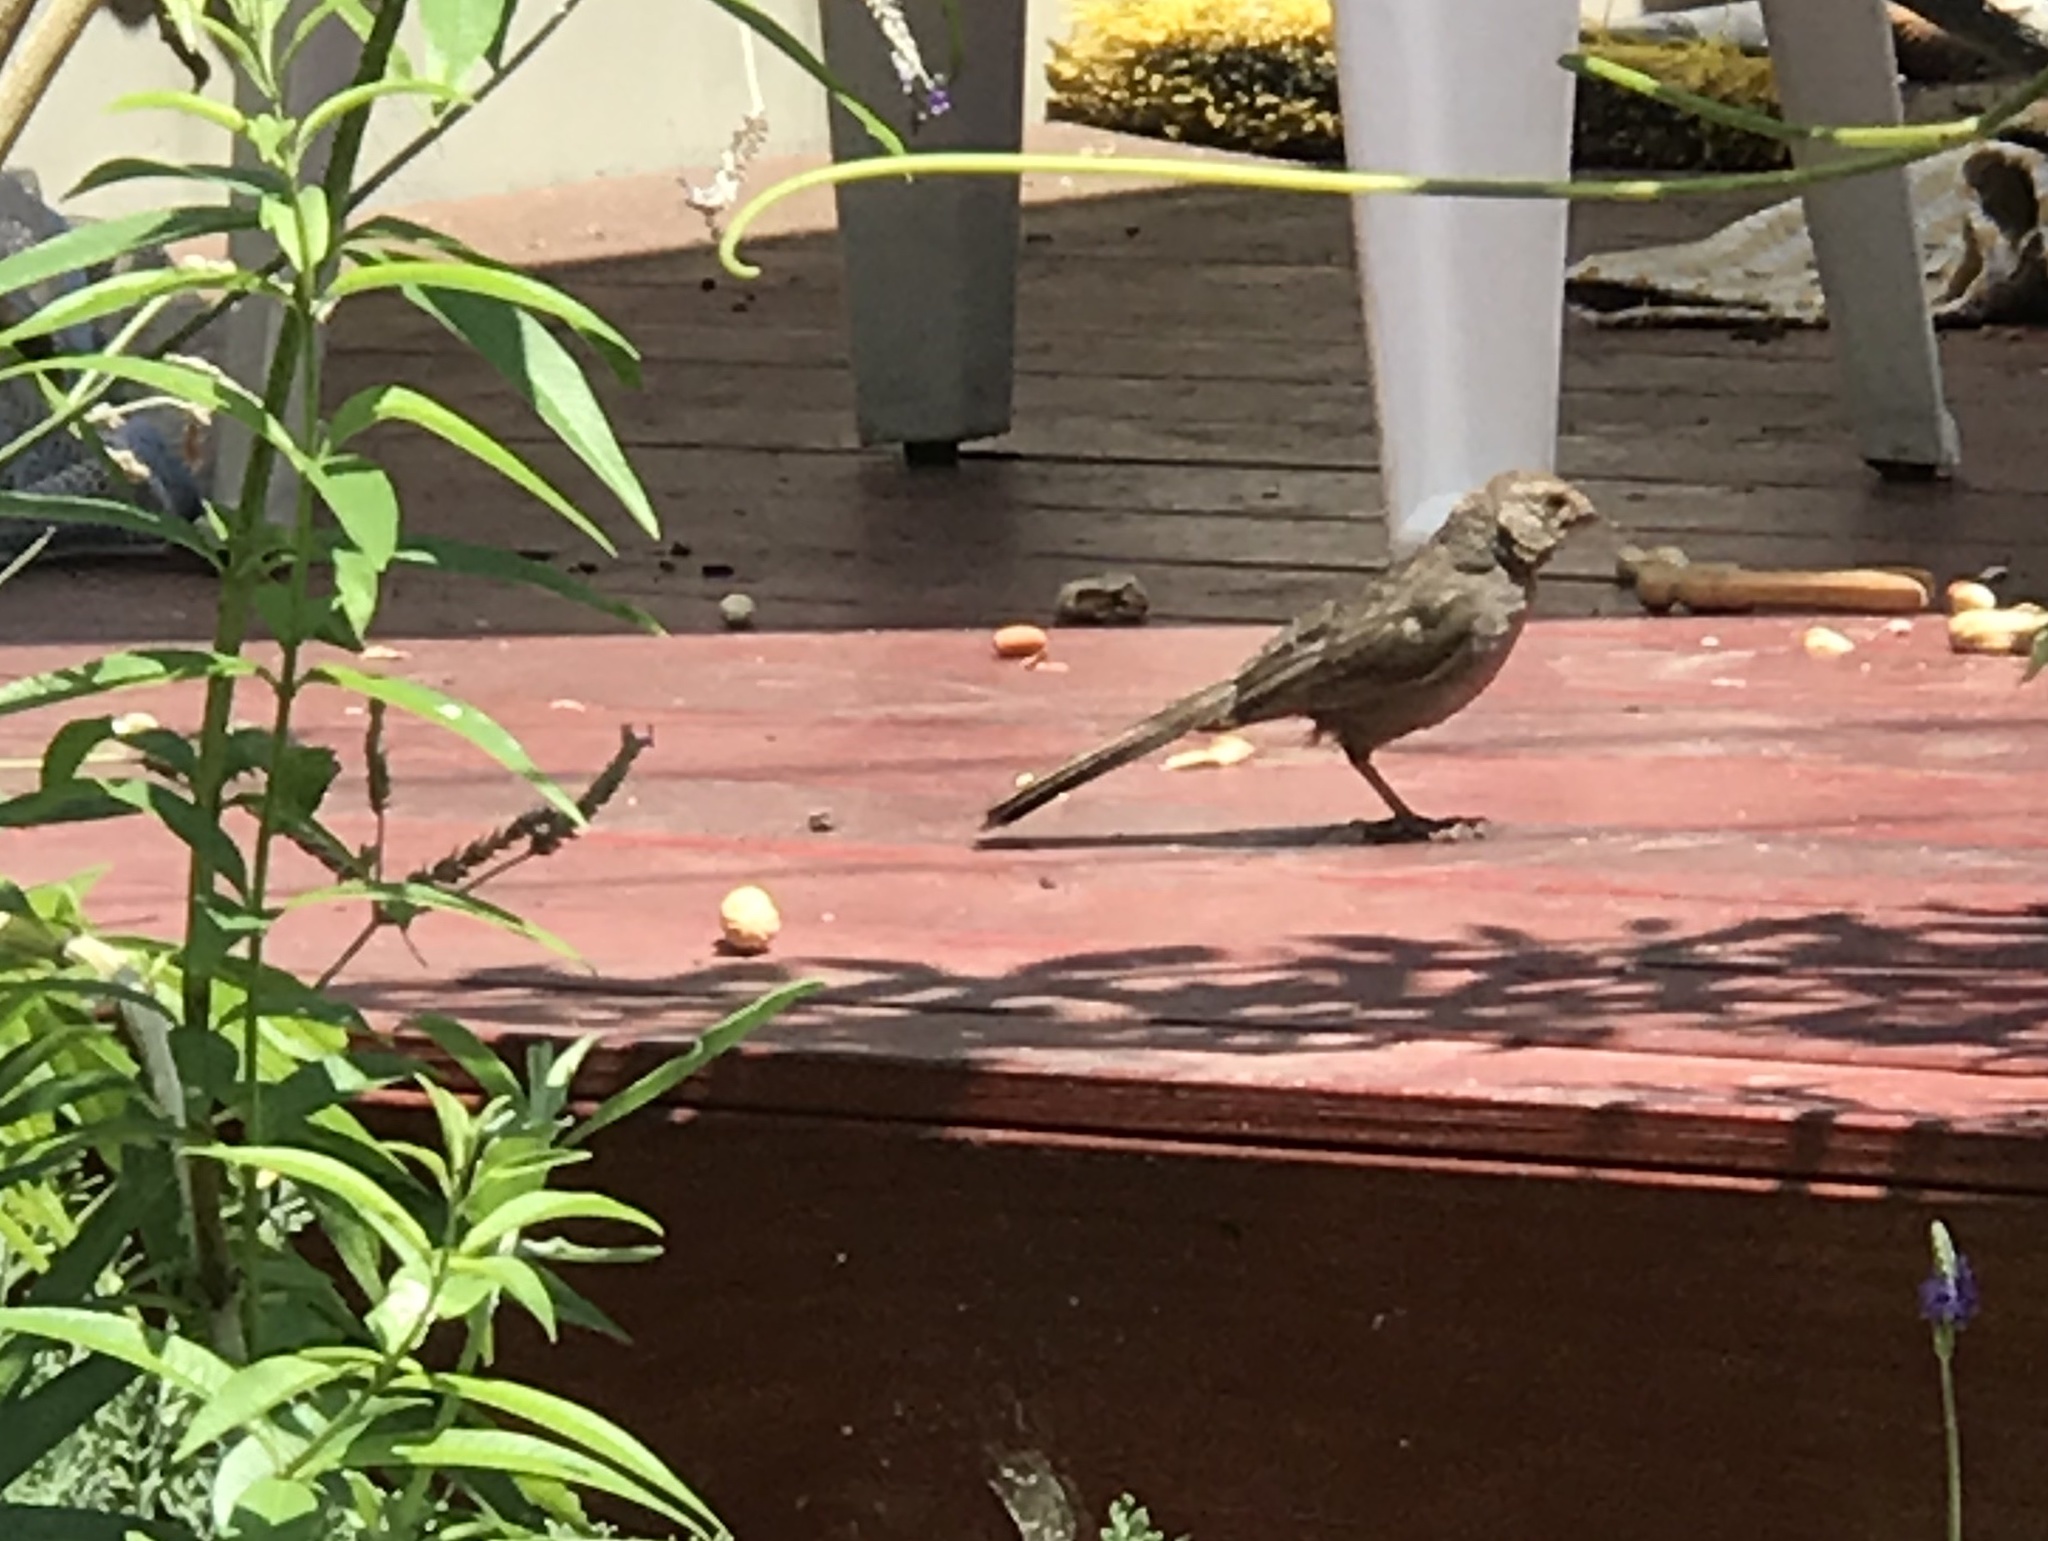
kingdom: Animalia
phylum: Chordata
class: Aves
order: Passeriformes
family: Passerellidae
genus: Melozone
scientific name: Melozone crissalis
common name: California towhee
